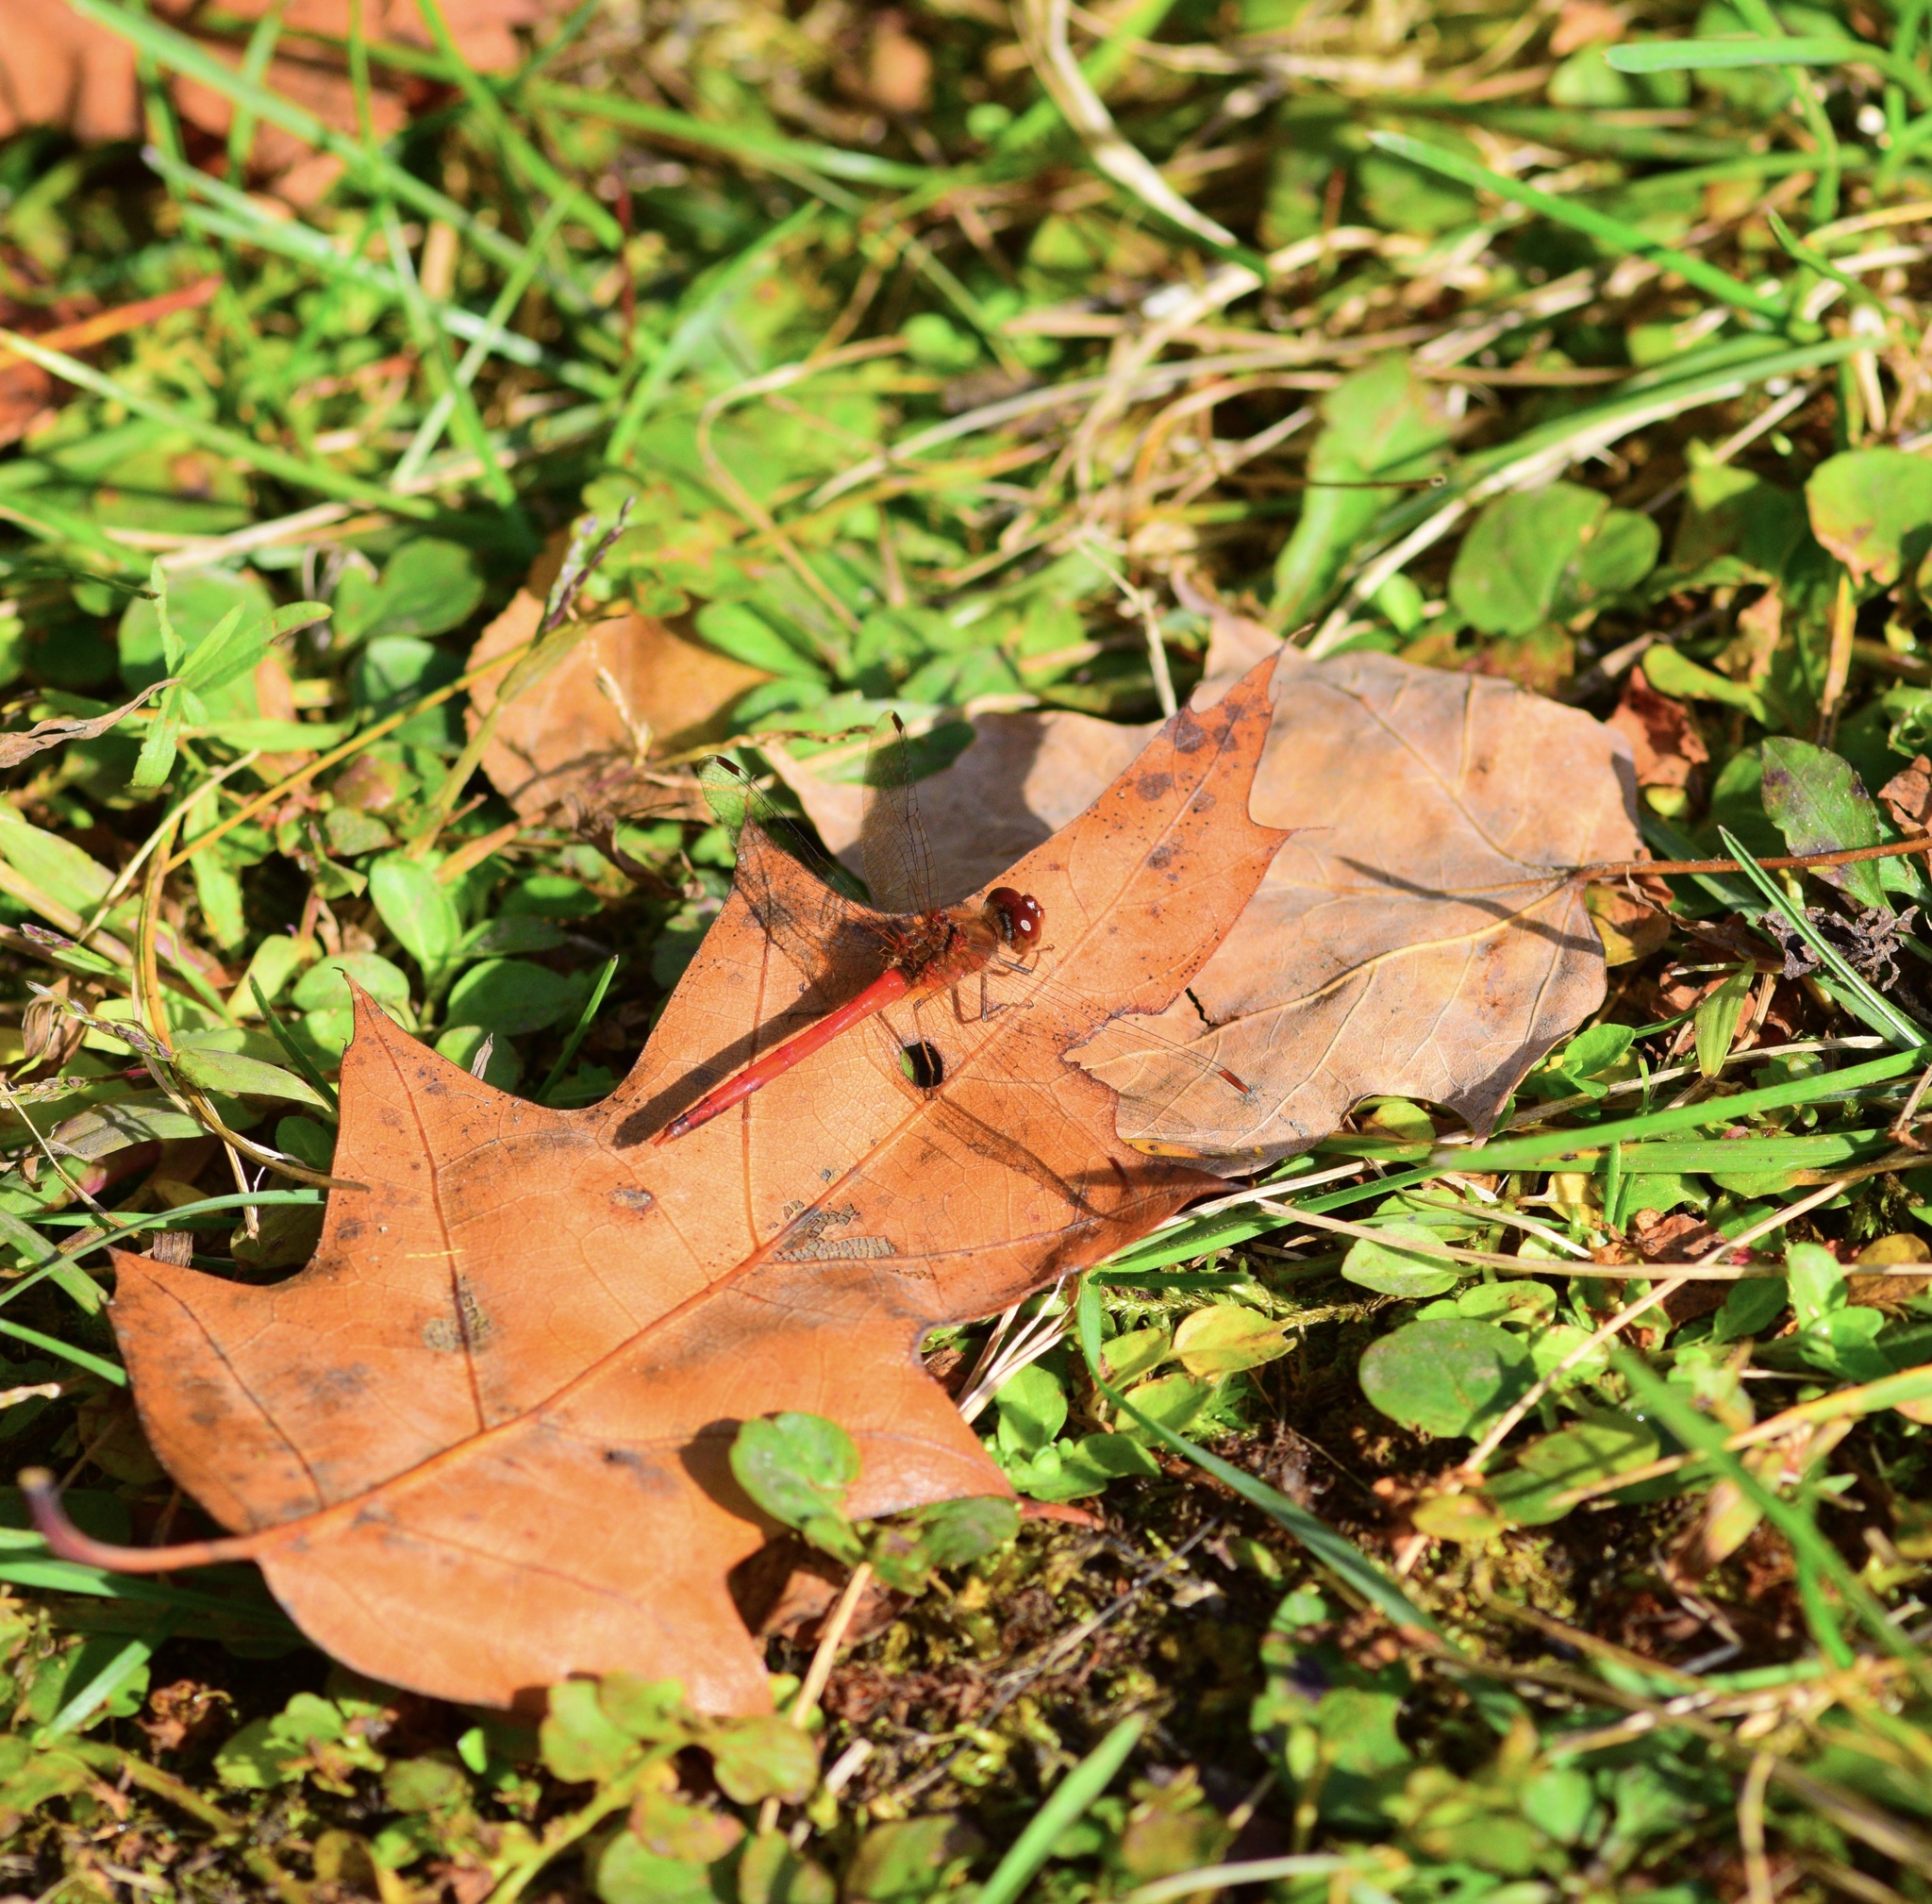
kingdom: Animalia
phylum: Arthropoda
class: Insecta
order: Odonata
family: Libellulidae
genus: Sympetrum
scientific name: Sympetrum vicinum
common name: Autumn meadowhawk
